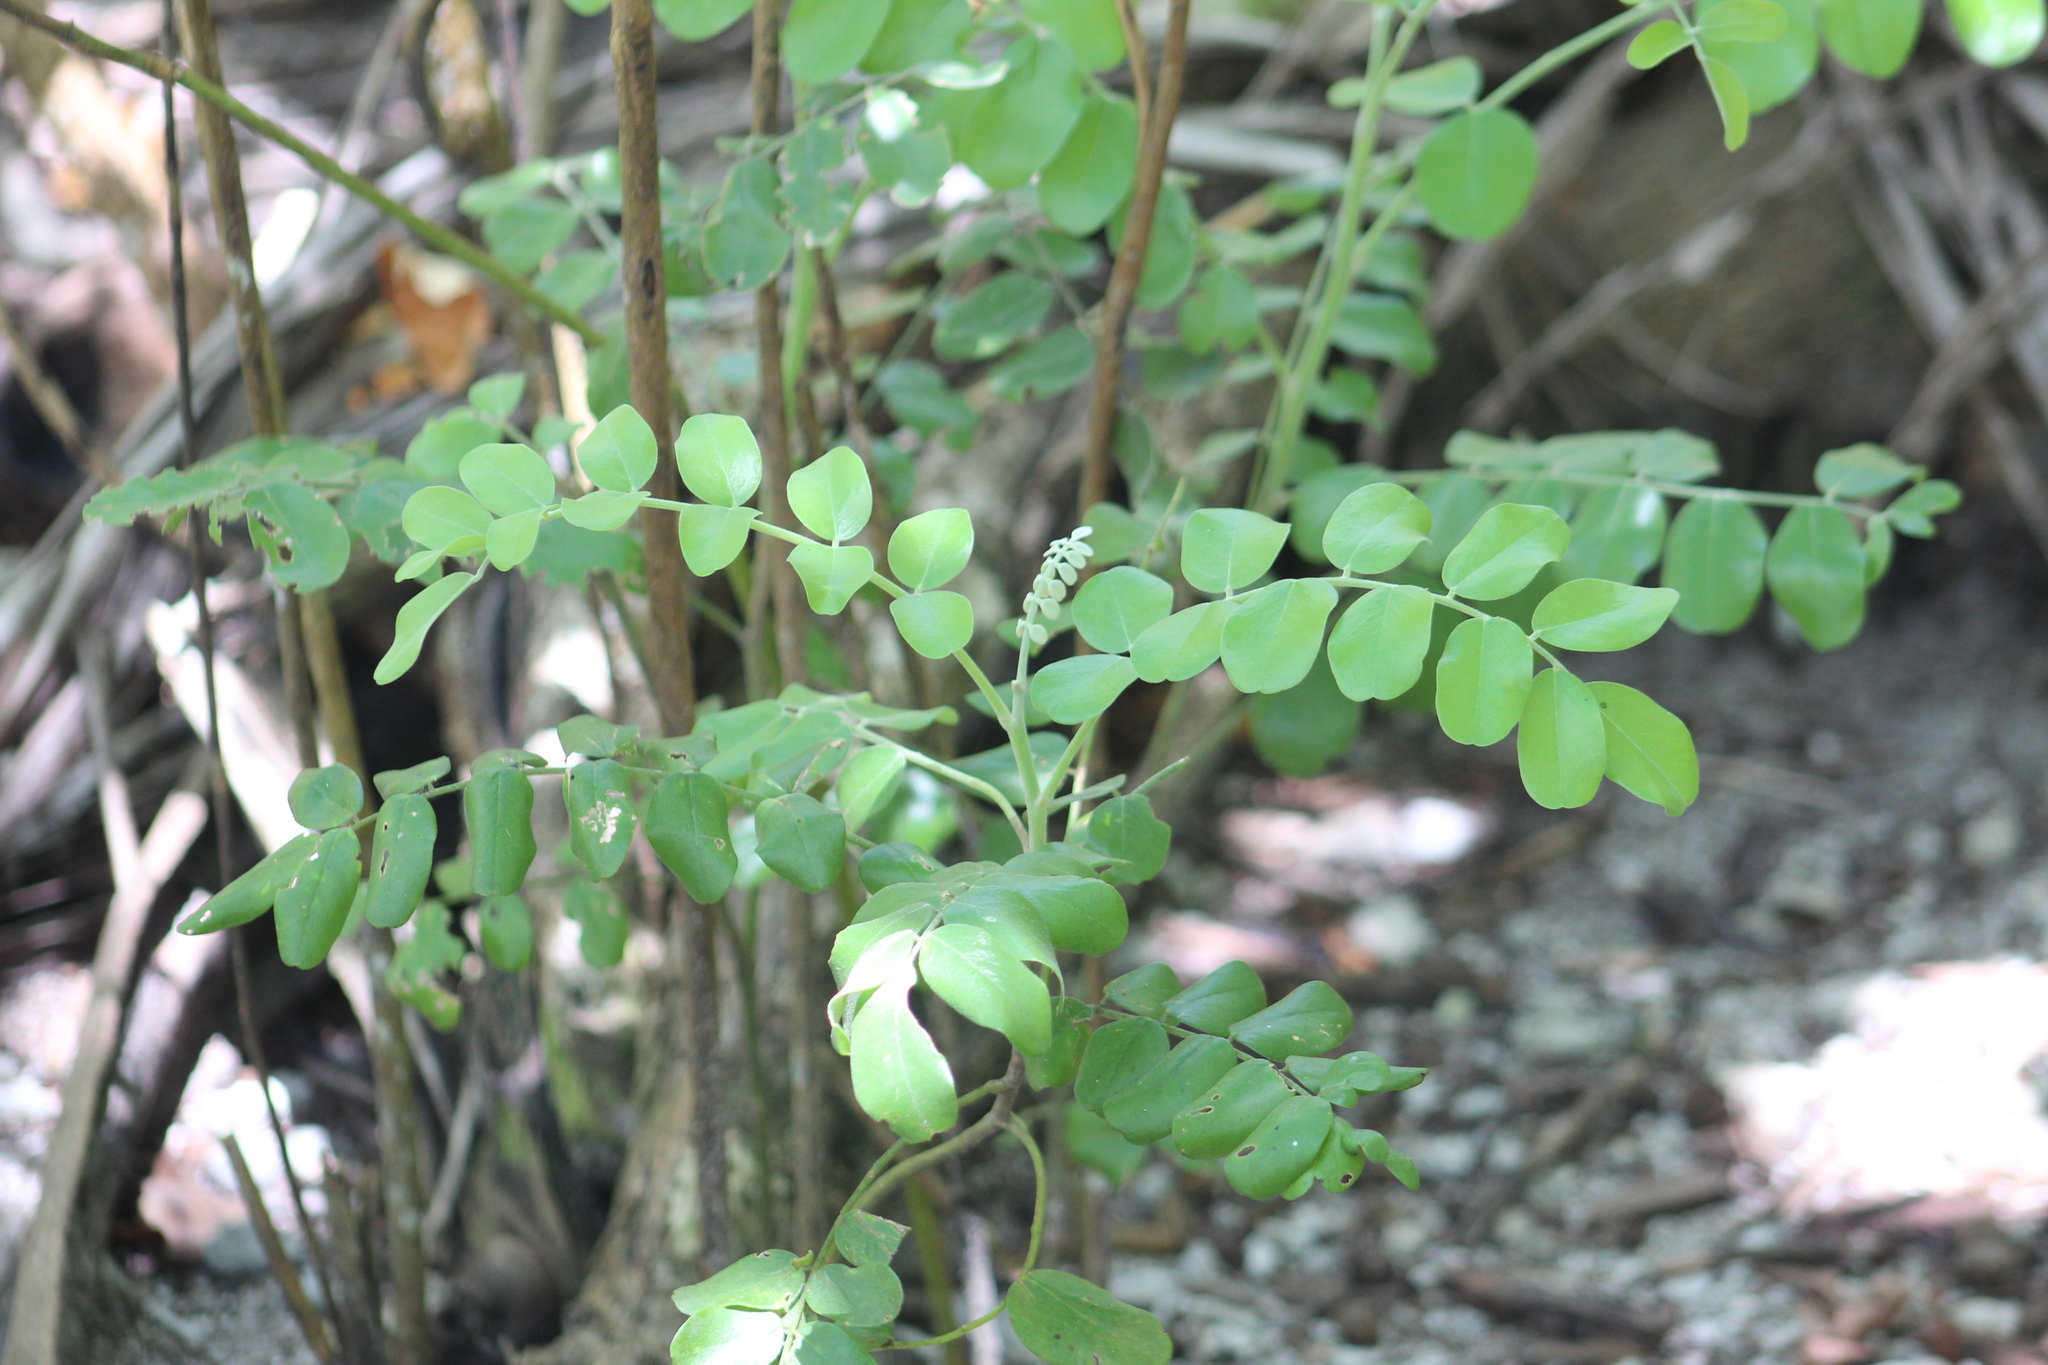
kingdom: Plantae
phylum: Tracheophyta
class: Magnoliopsida
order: Fabales
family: Fabaceae
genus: Sophora
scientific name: Sophora tomentosa
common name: Yellow necklacepod
